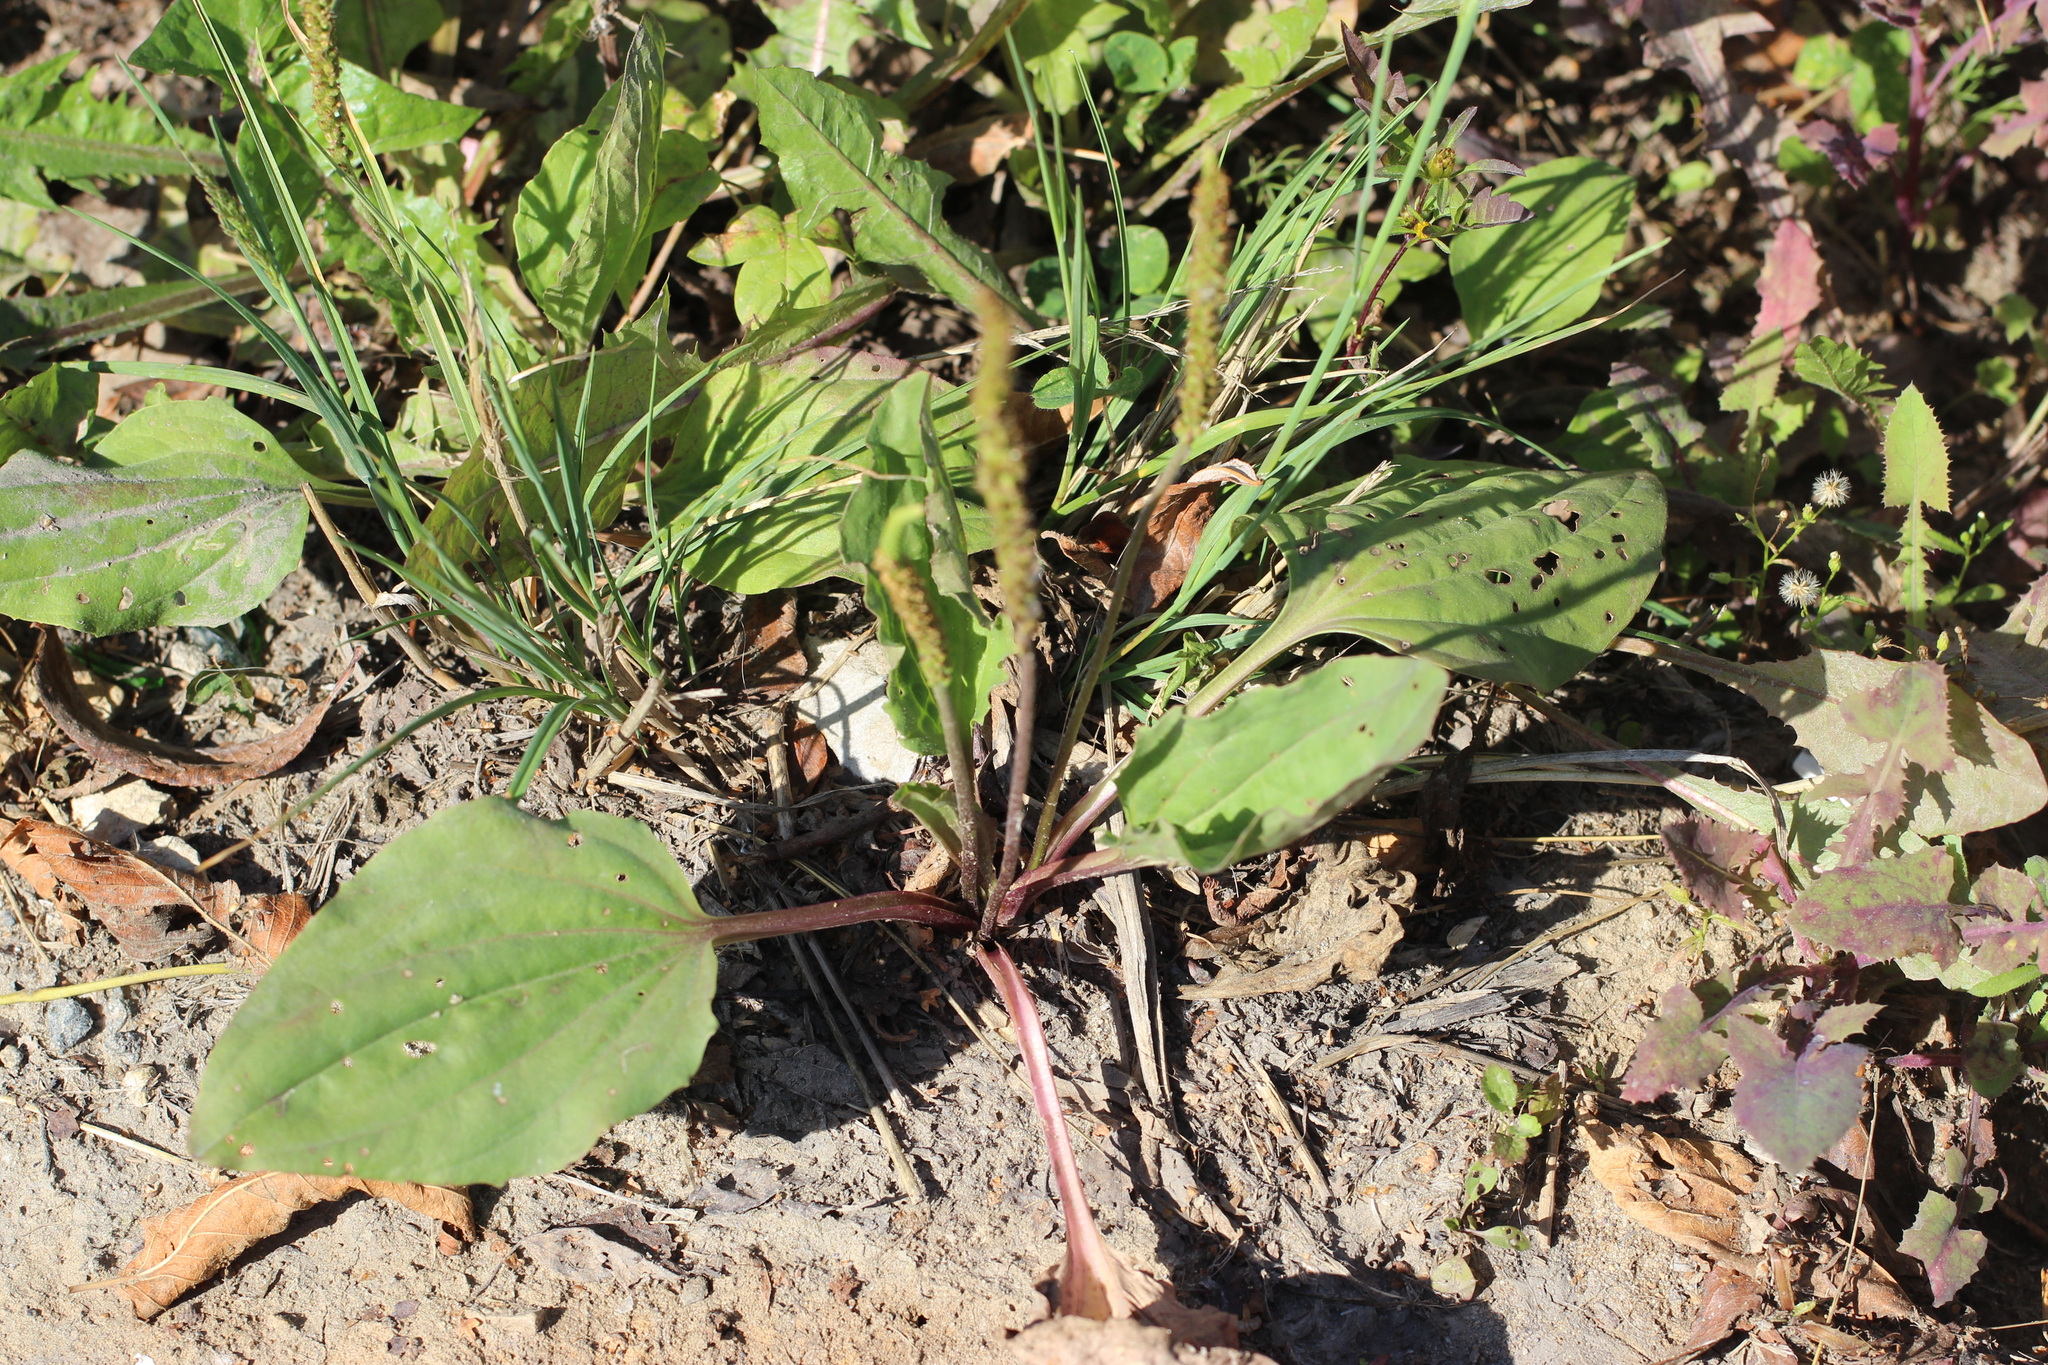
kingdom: Plantae
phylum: Tracheophyta
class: Magnoliopsida
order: Lamiales
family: Plantaginaceae
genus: Plantago
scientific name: Plantago major
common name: Common plantain
